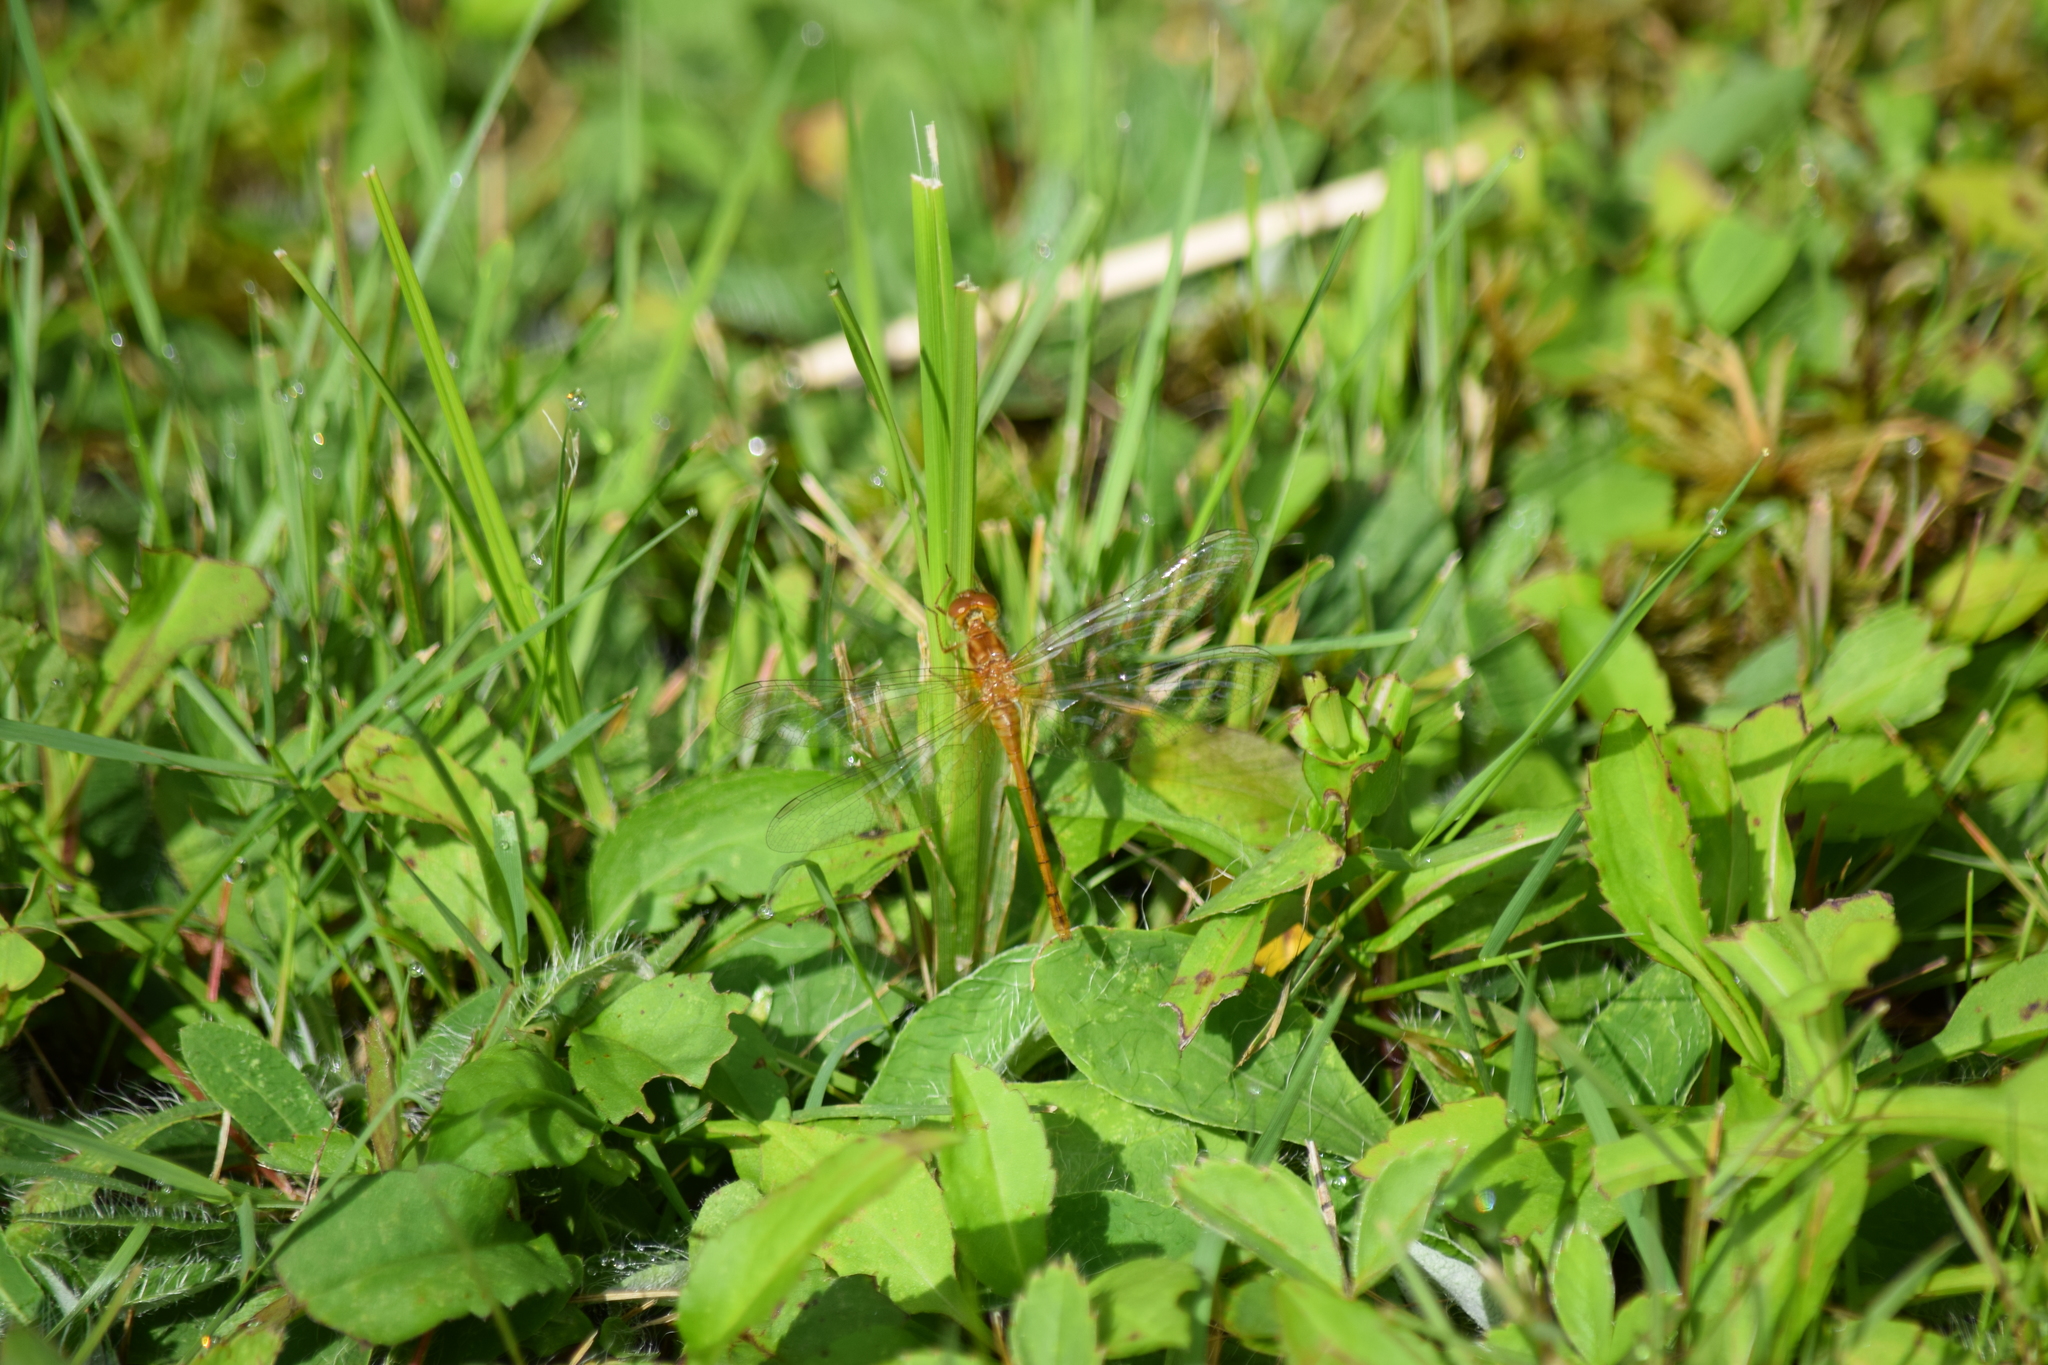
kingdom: Animalia
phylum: Arthropoda
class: Insecta
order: Odonata
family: Libellulidae
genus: Sympetrum
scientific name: Sympetrum vicinum
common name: Autumn meadowhawk
